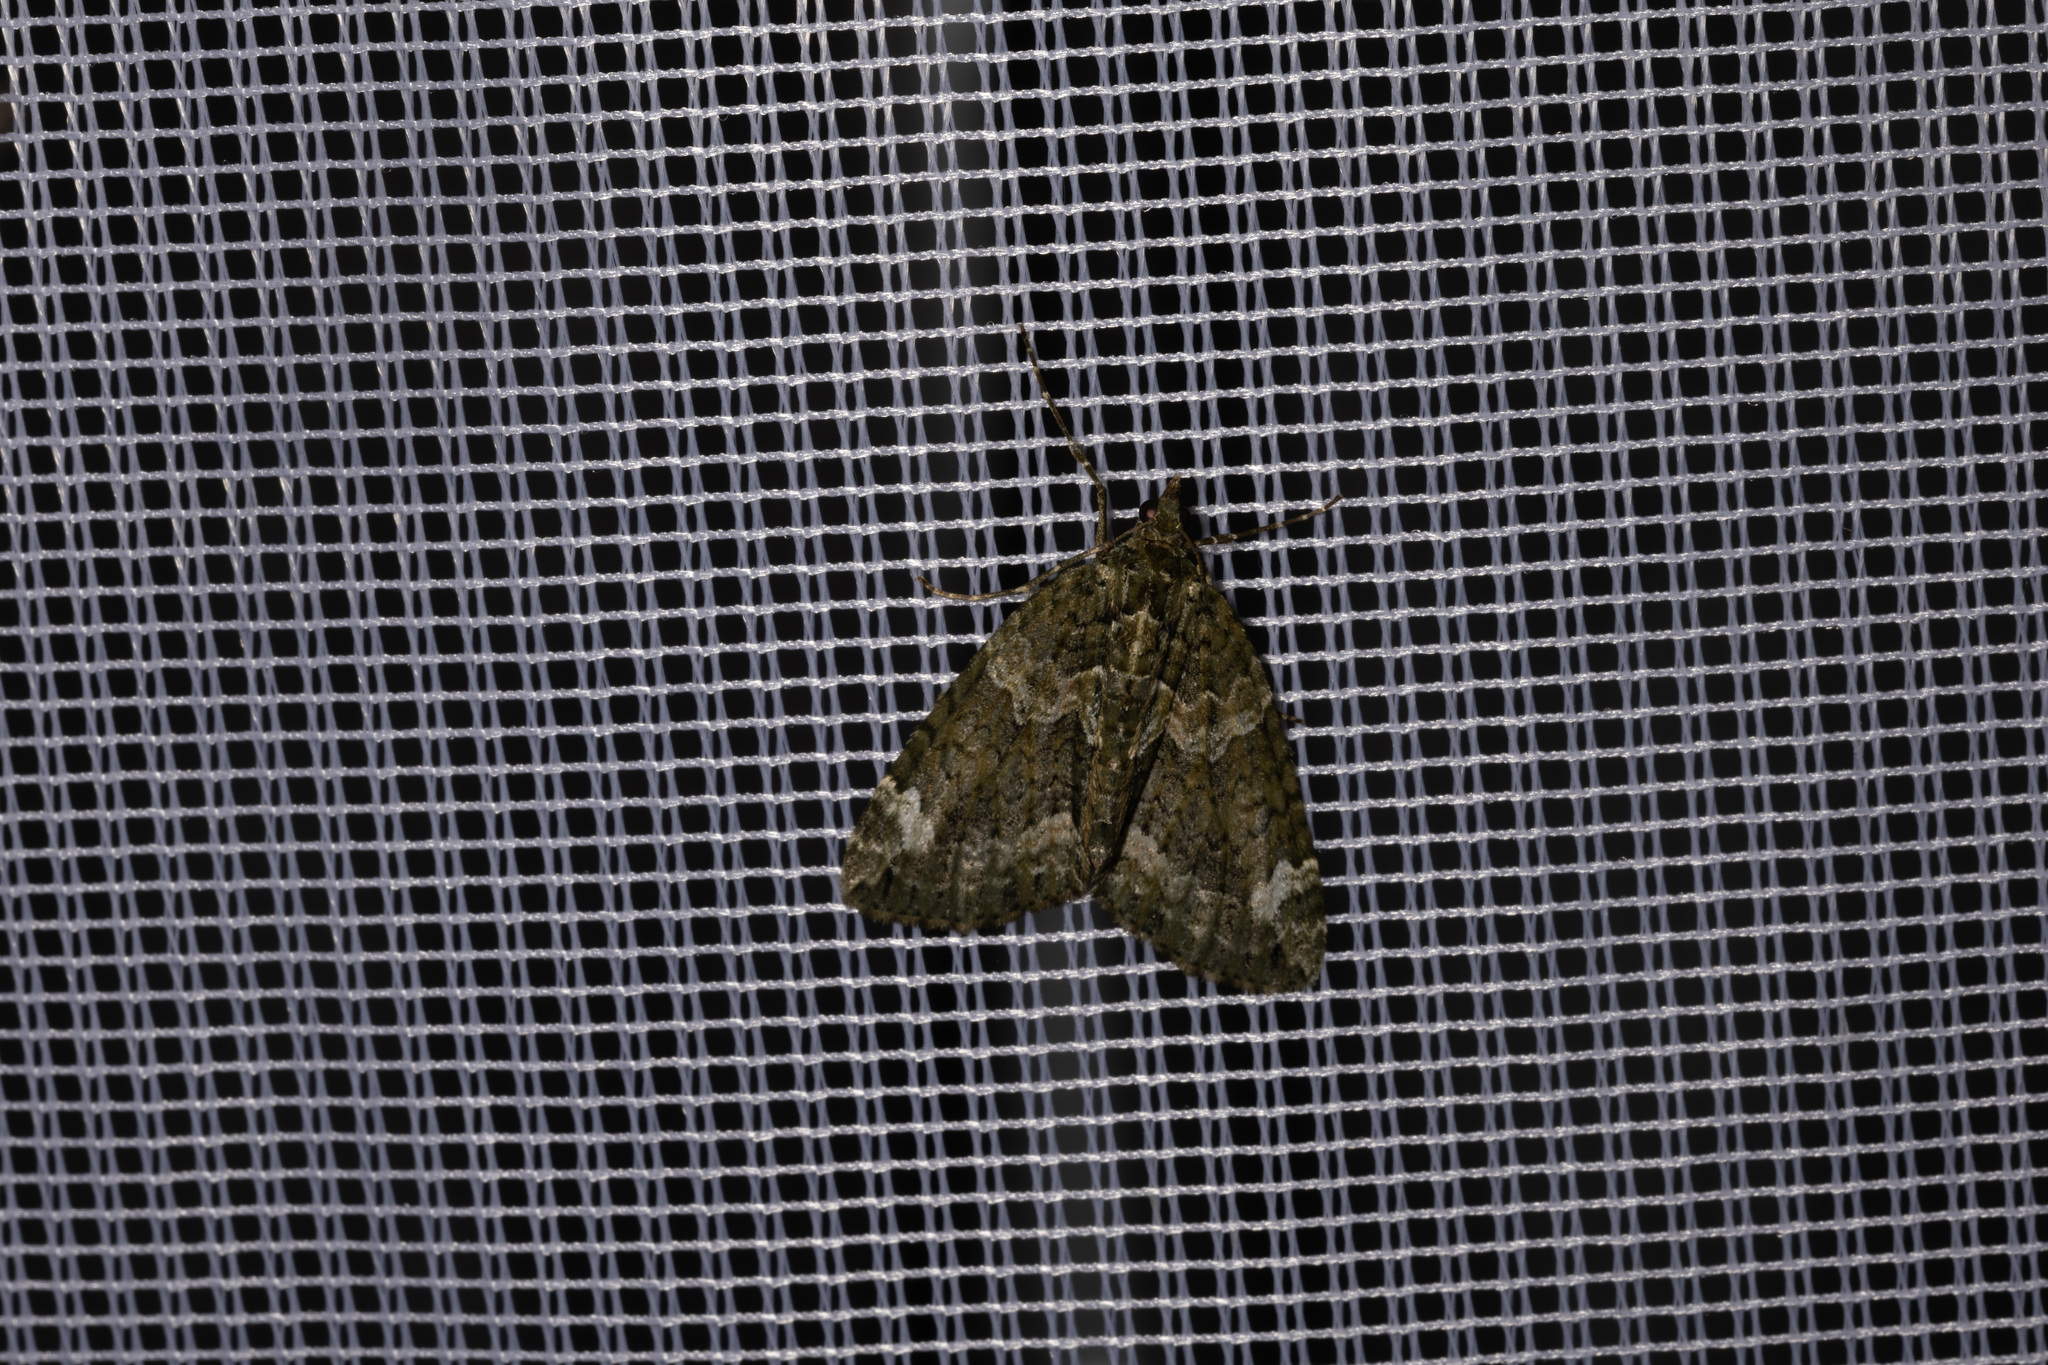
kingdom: Animalia
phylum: Arthropoda
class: Insecta
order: Lepidoptera
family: Geometridae
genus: Chloroclysta
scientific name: Chloroclysta siterata
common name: Red-green carpet
